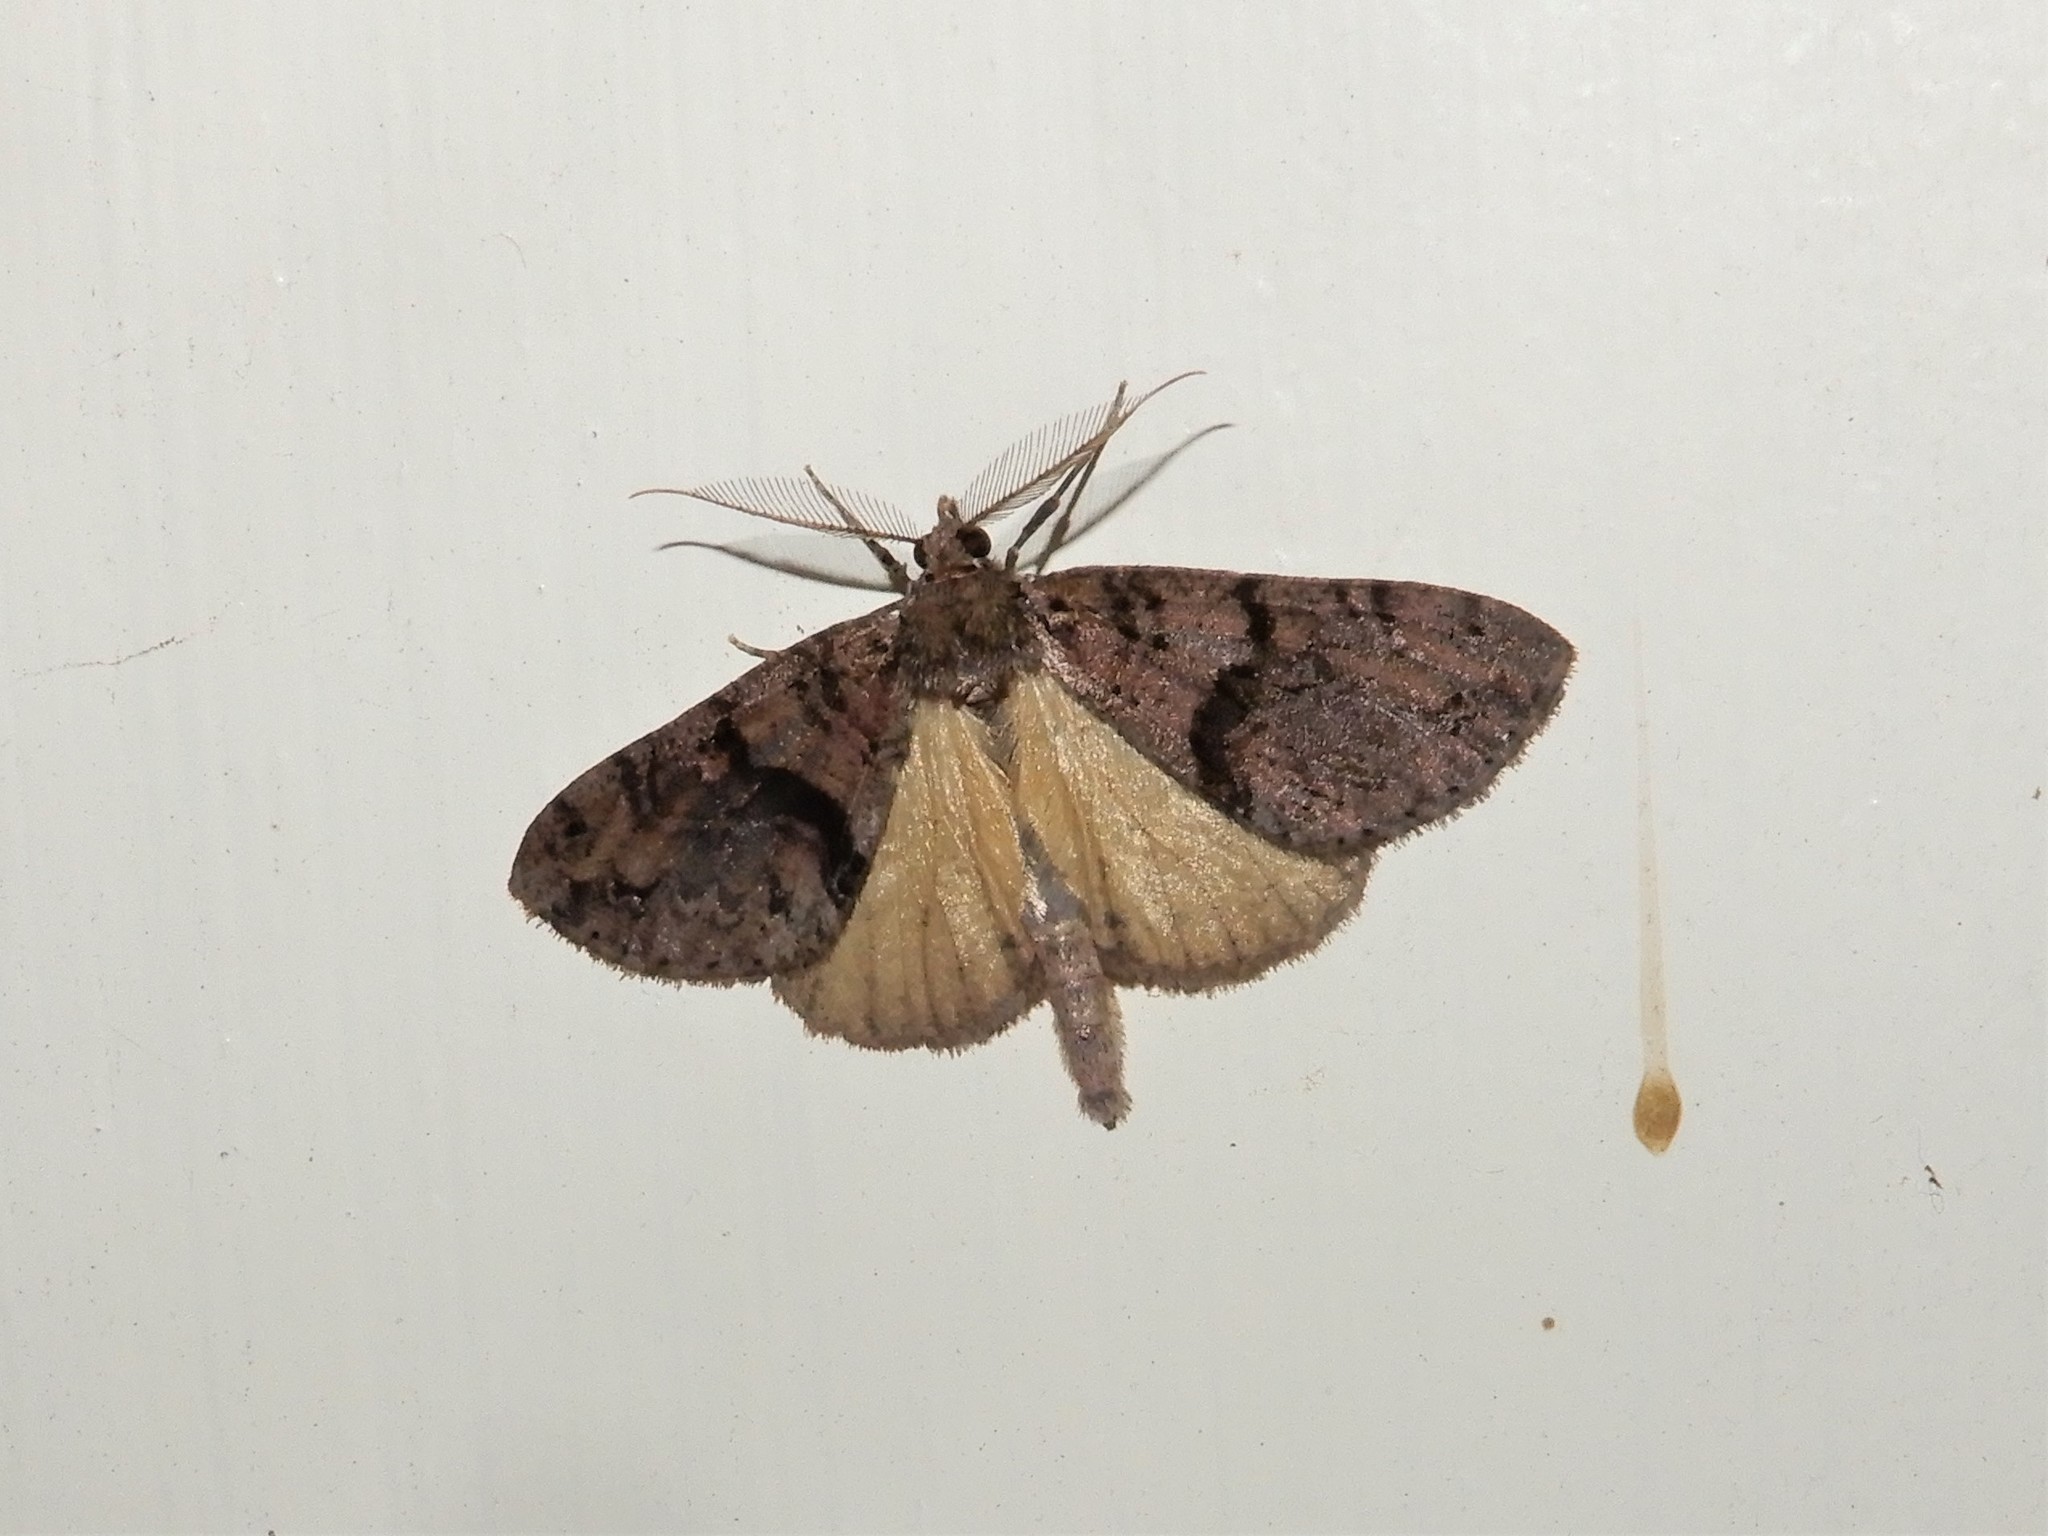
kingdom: Animalia
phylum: Arthropoda
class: Insecta
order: Lepidoptera
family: Geometridae
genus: Pseudocoremia
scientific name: Pseudocoremia suavis
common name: Common forest looper
